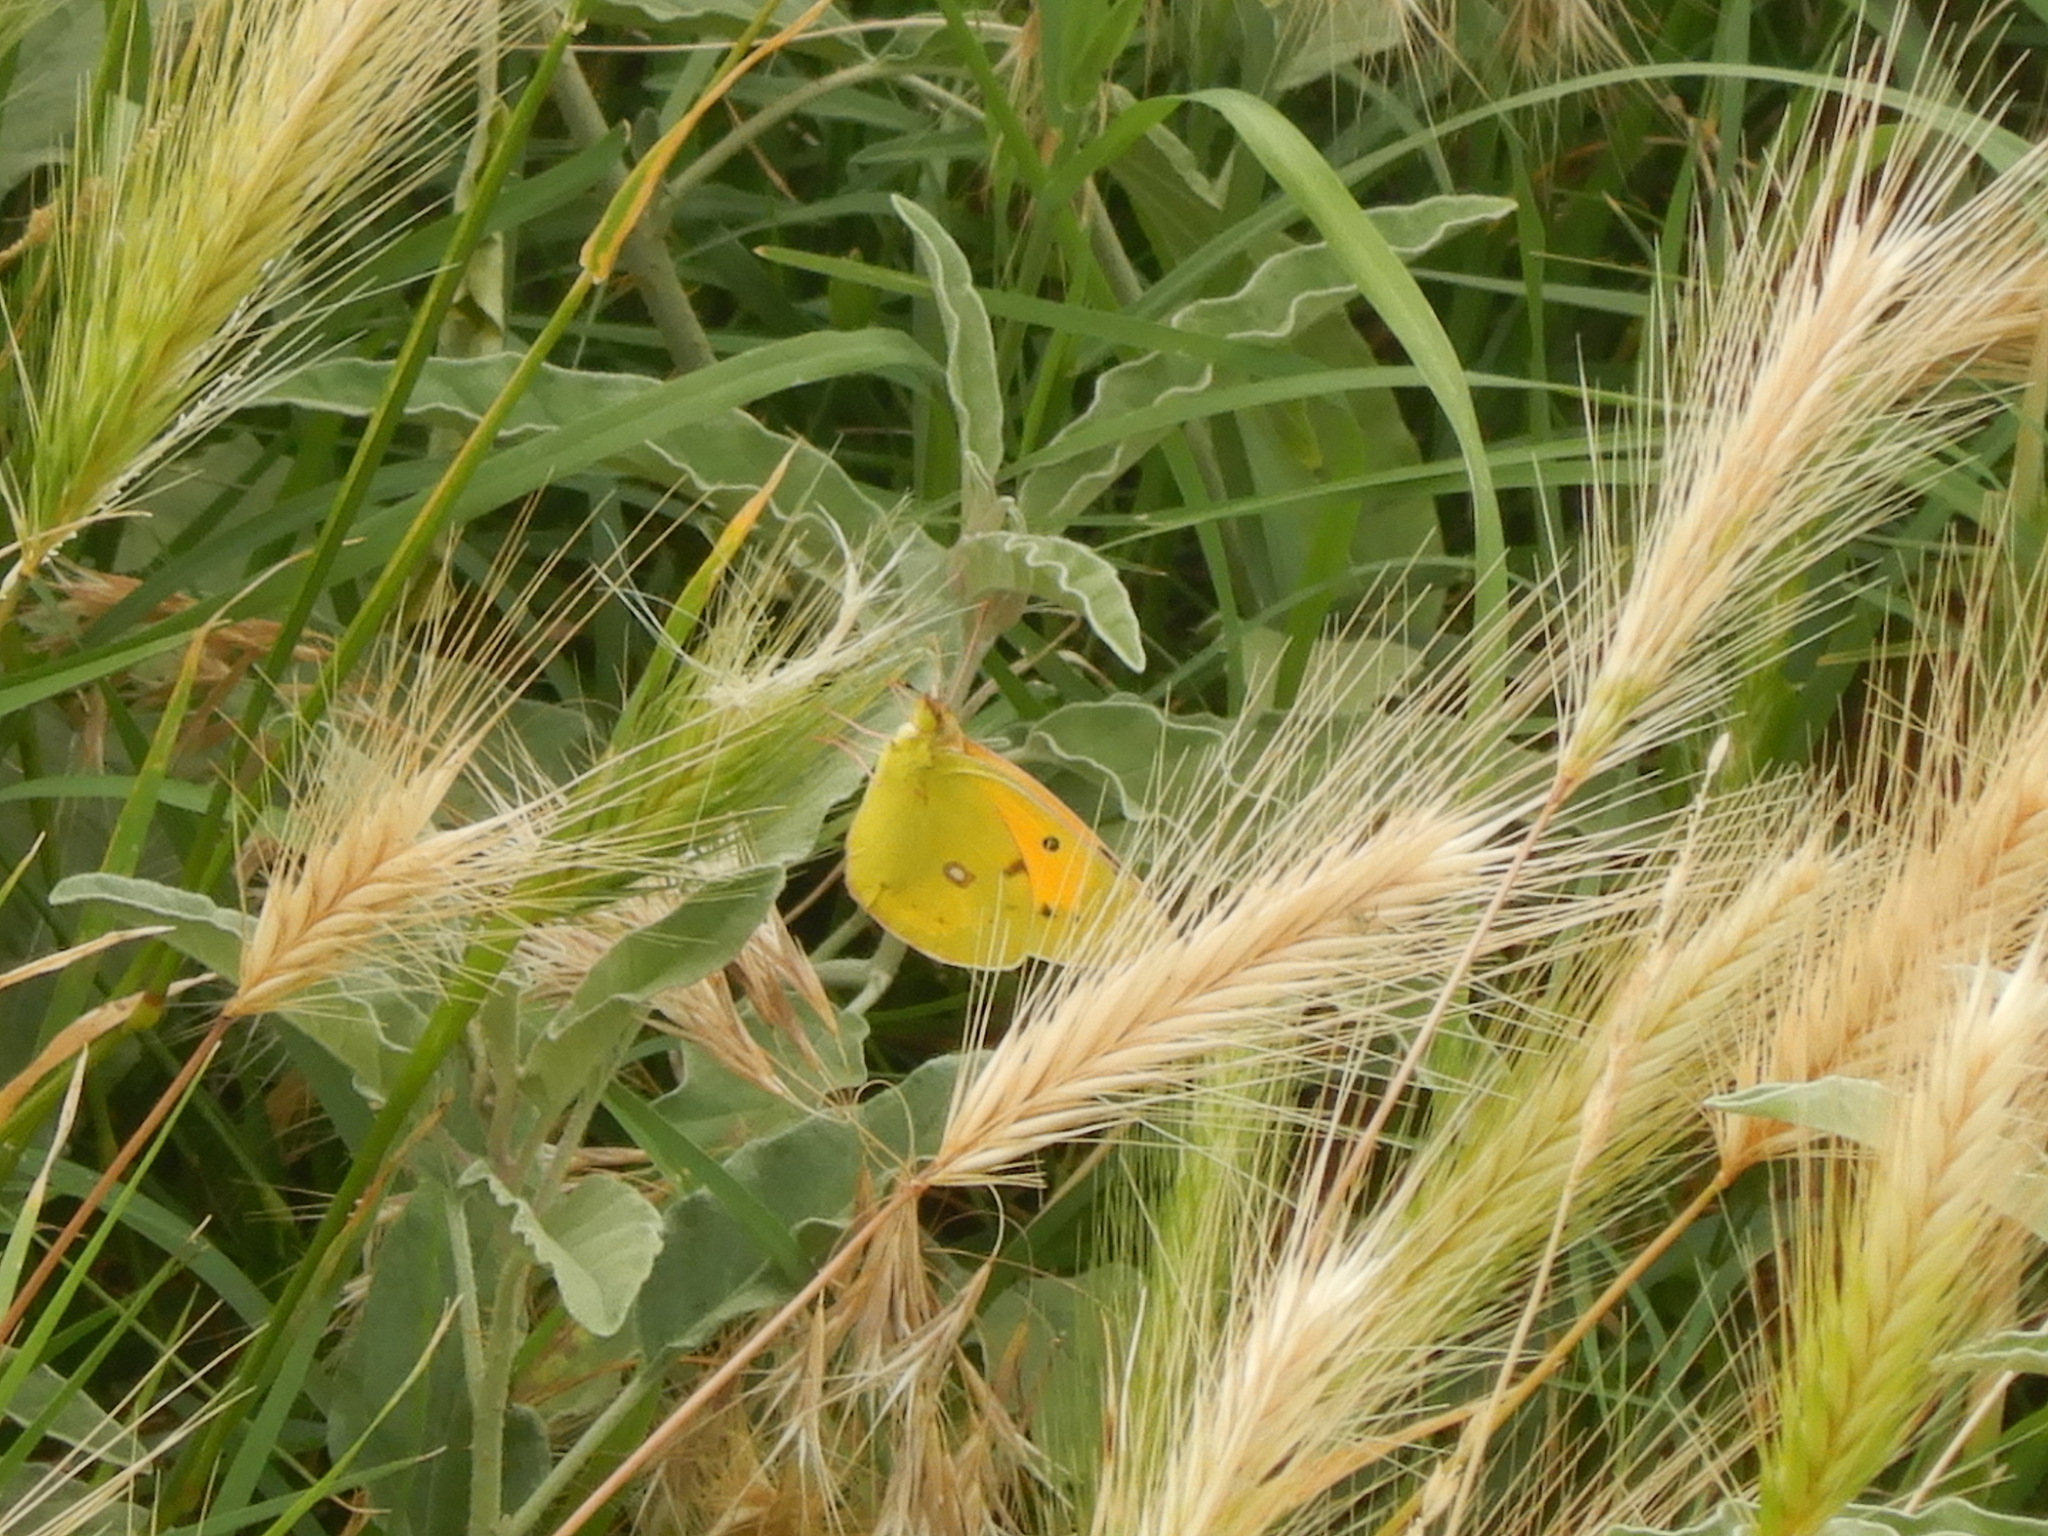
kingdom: Animalia
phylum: Arthropoda
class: Insecta
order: Lepidoptera
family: Pieridae
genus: Colias
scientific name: Colias croceus
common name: Clouded yellow
